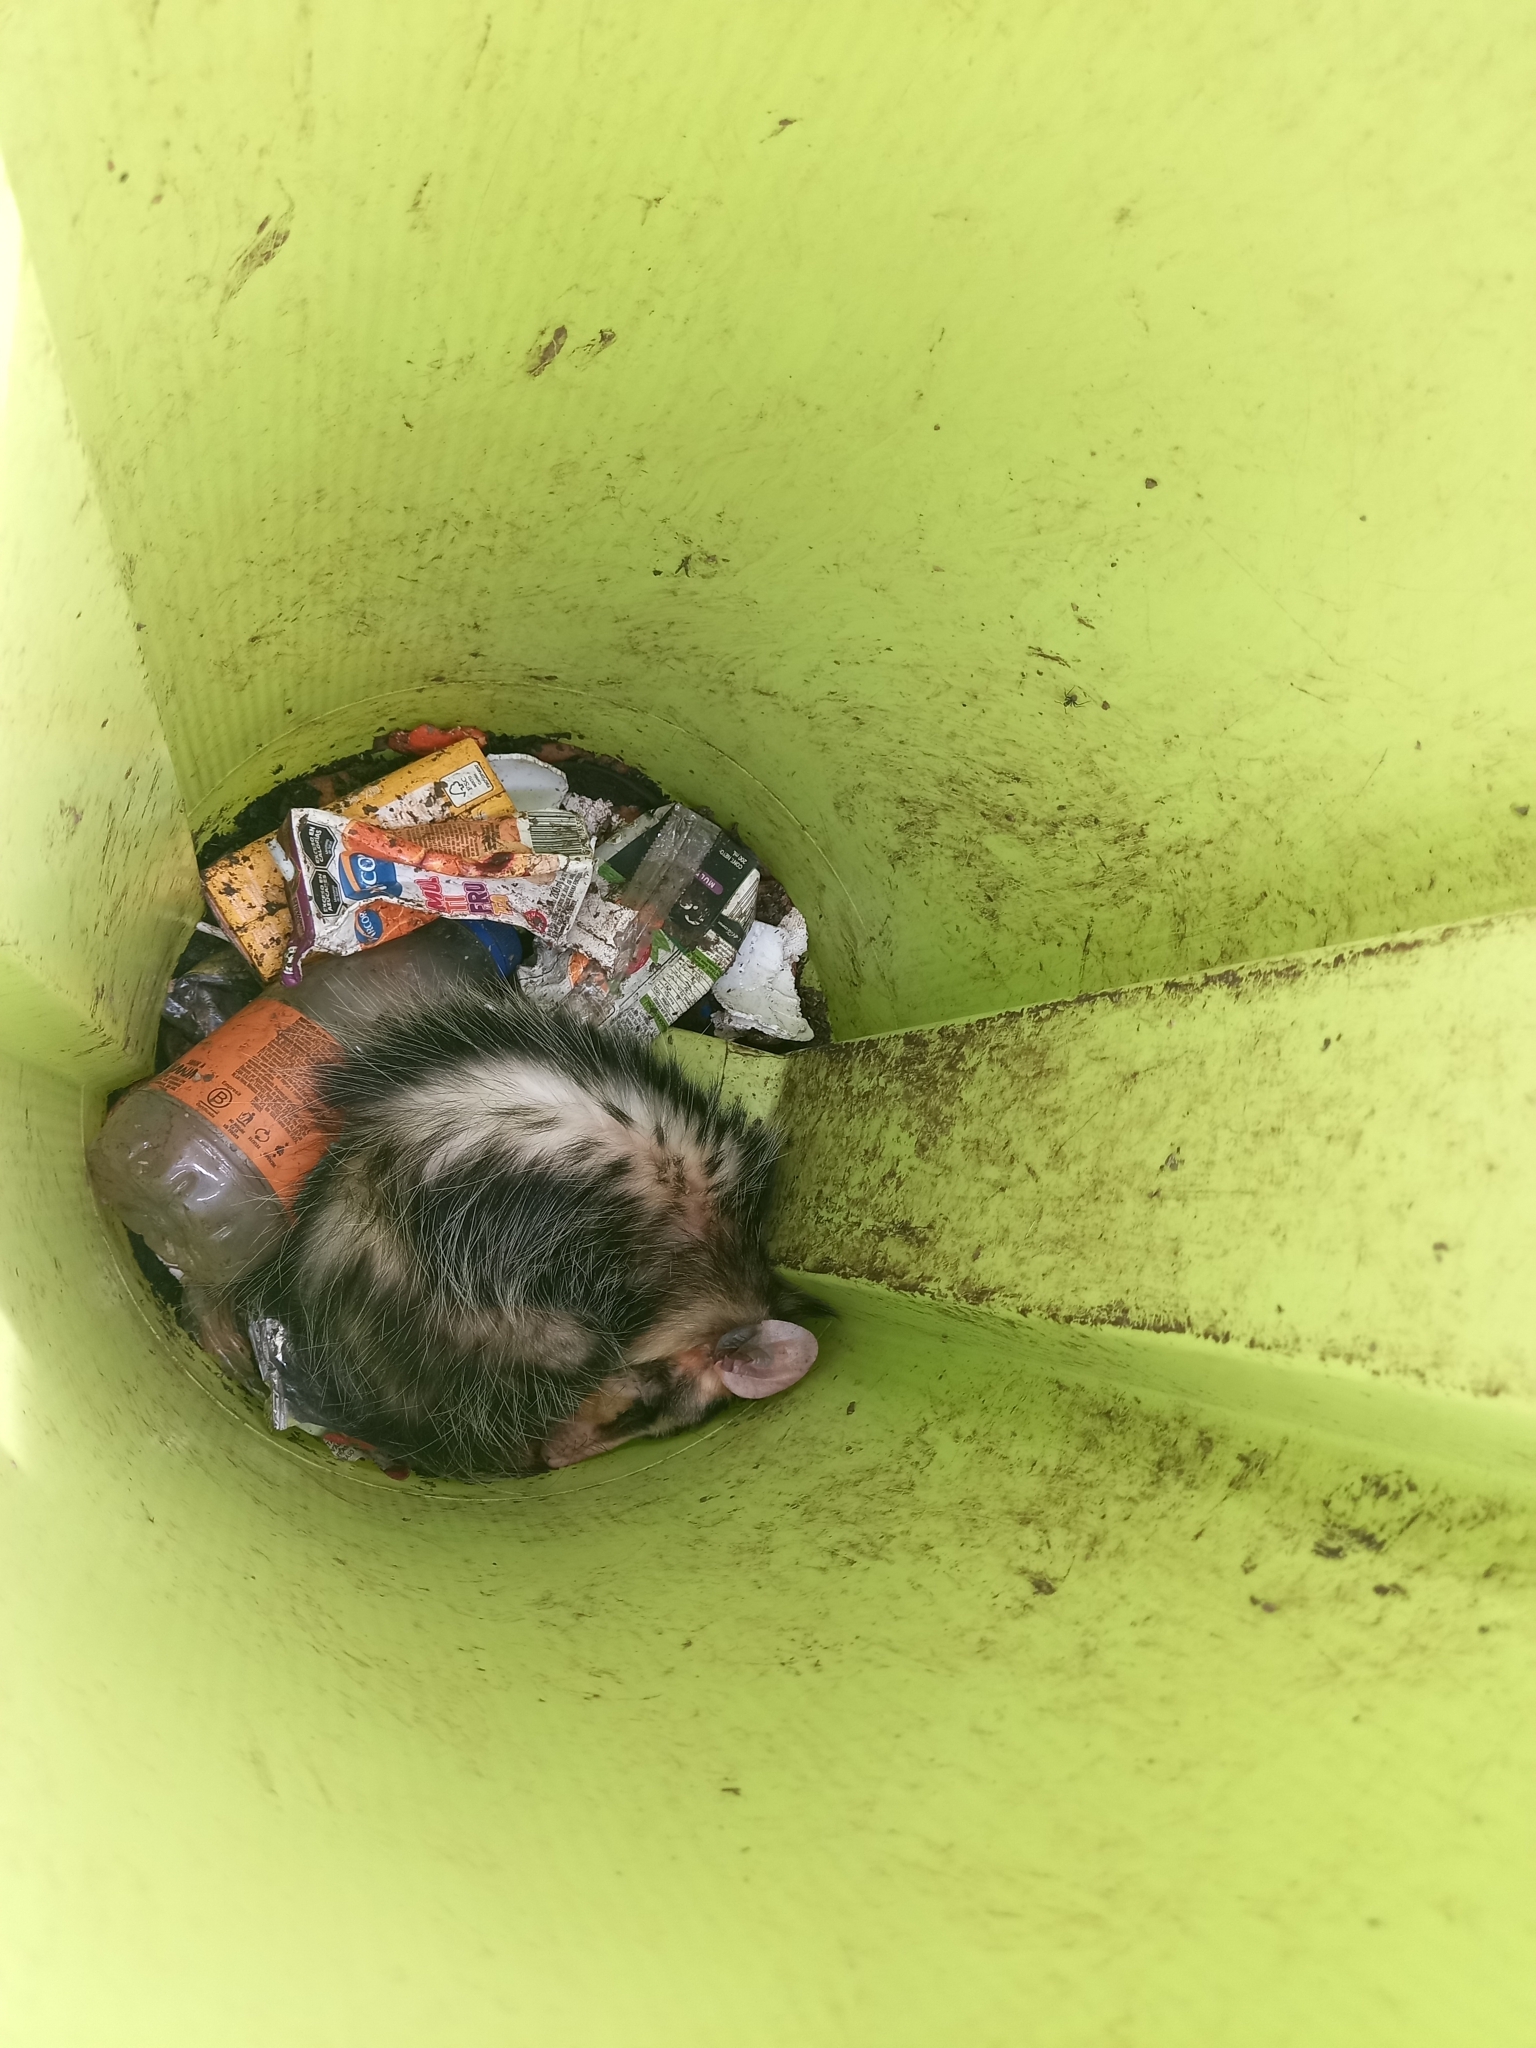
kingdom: Animalia
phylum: Chordata
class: Mammalia
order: Didelphimorphia
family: Didelphidae
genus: Didelphis
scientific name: Didelphis albiventris
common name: White-eared opossum
